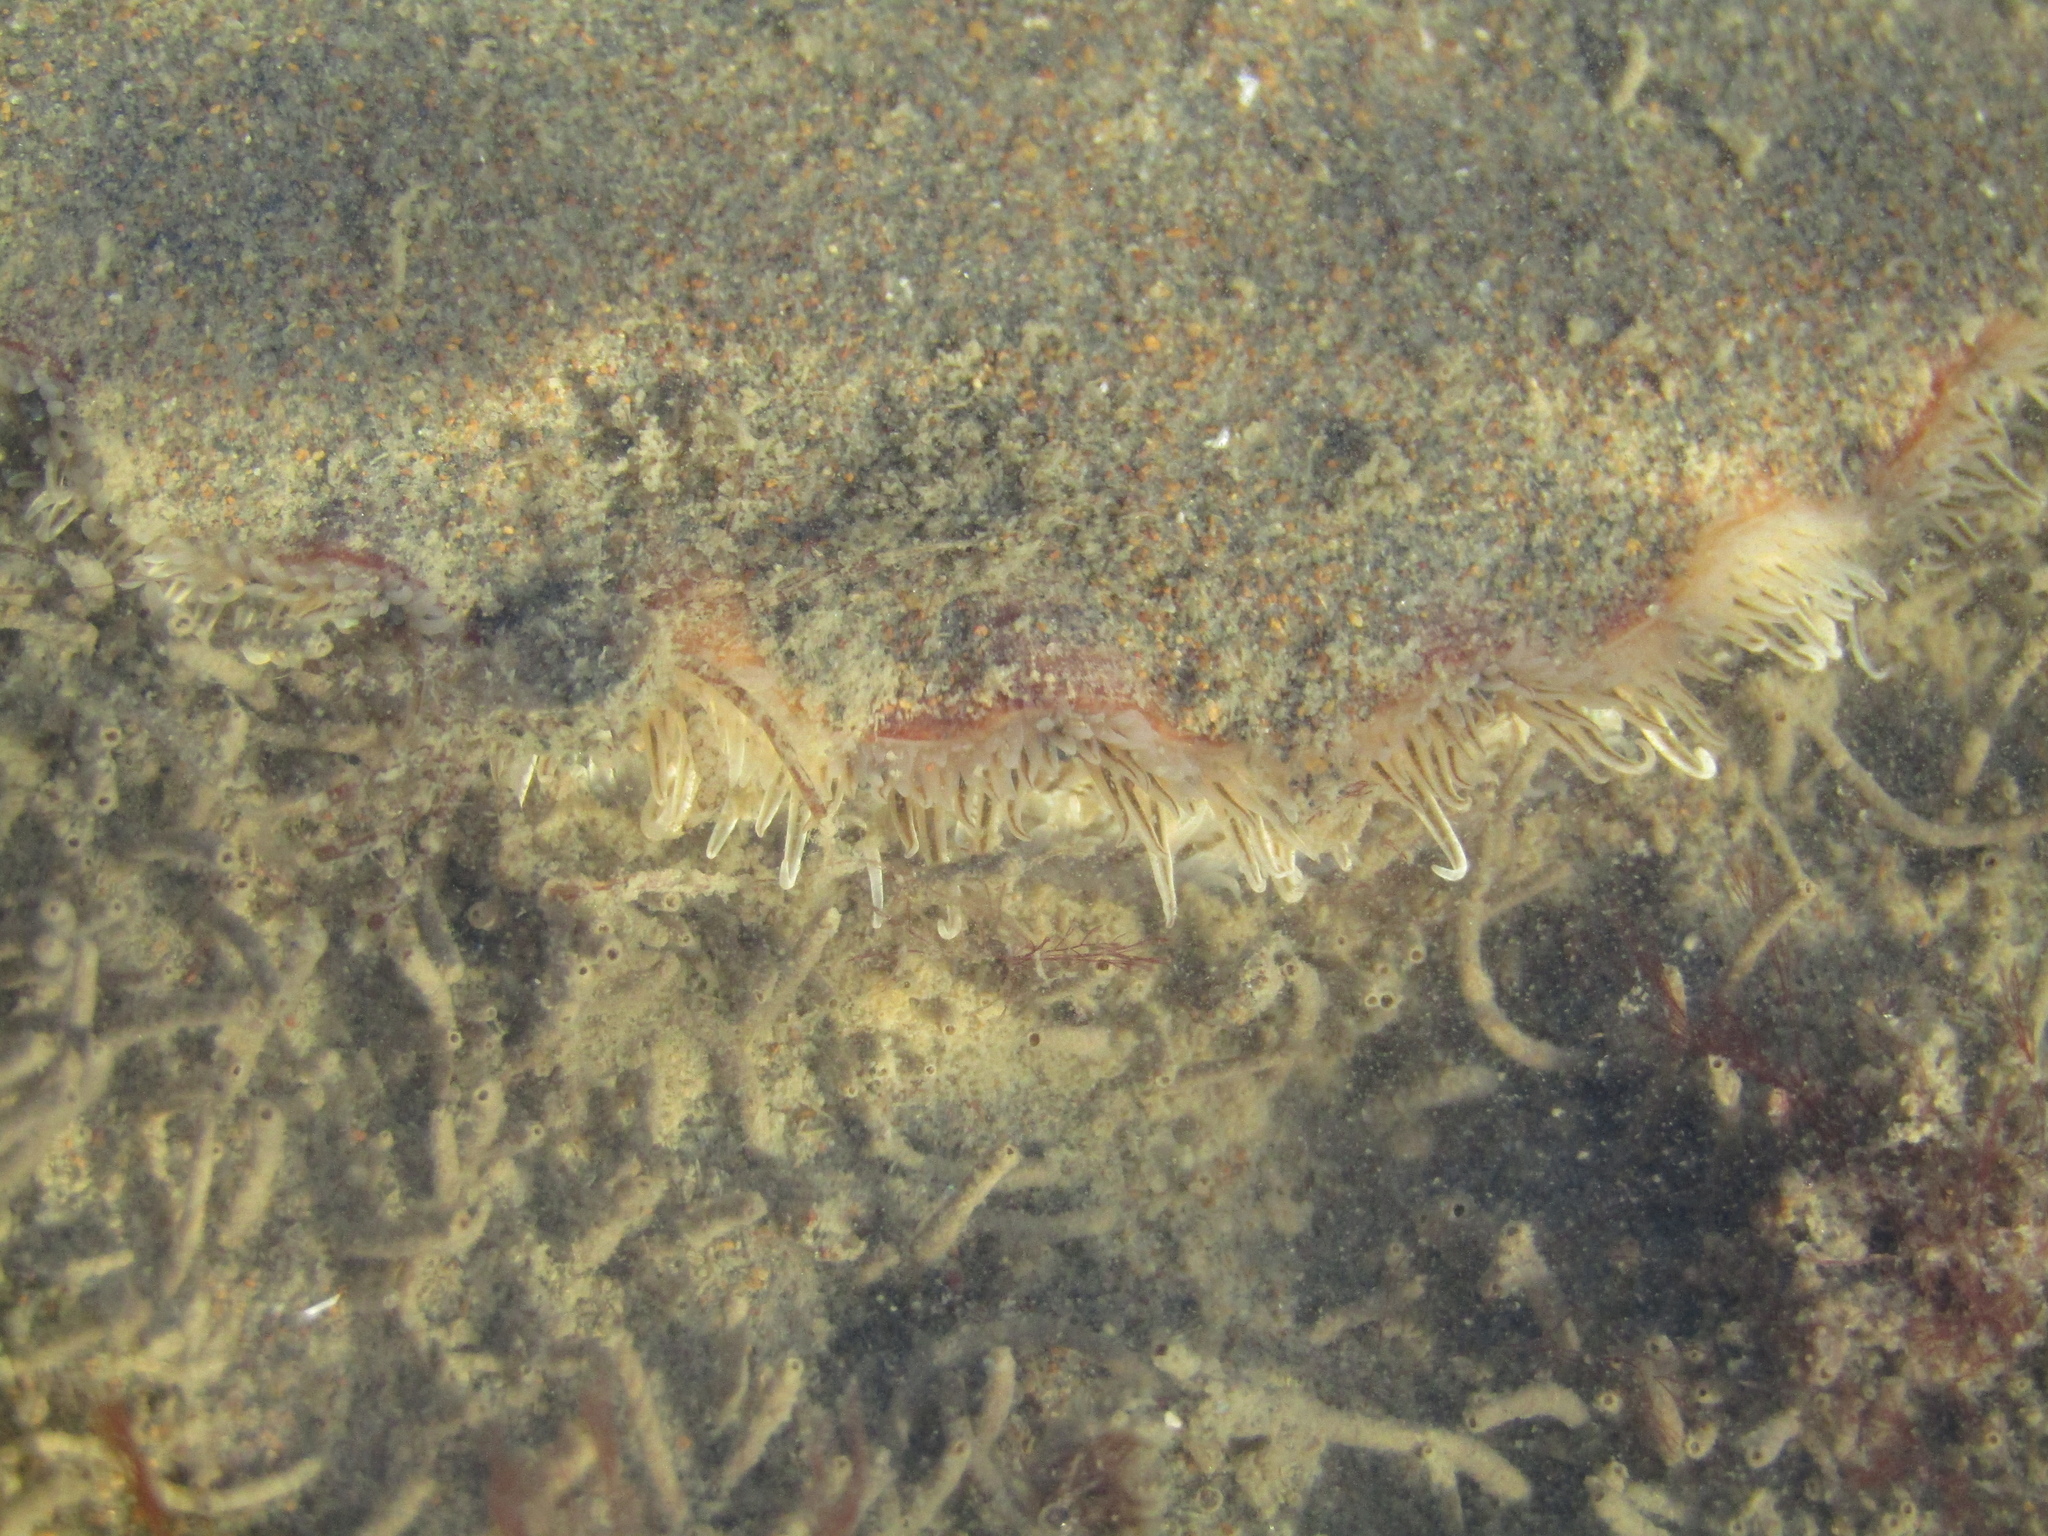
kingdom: Animalia
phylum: Mollusca
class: Bivalvia
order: Pectinida
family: Pectinidae
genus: Pecten
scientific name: Pecten novaezelandiae
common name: New zealand scallop
